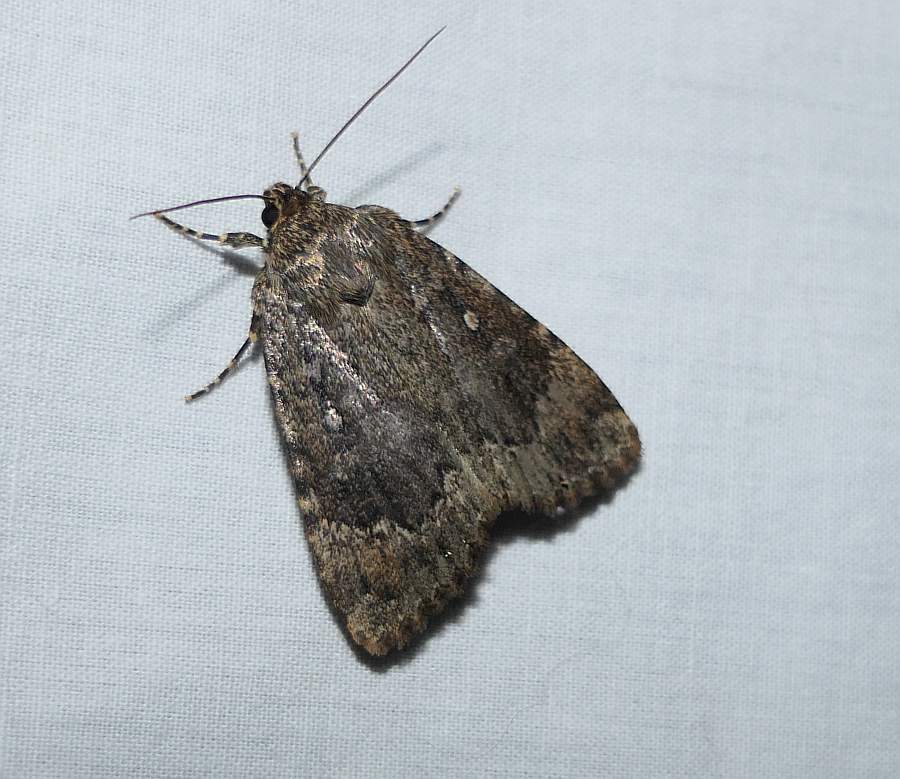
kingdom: Animalia
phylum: Arthropoda
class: Insecta
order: Lepidoptera
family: Noctuidae
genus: Amphipyra
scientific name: Amphipyra pyramidoides
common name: American copper underwing
